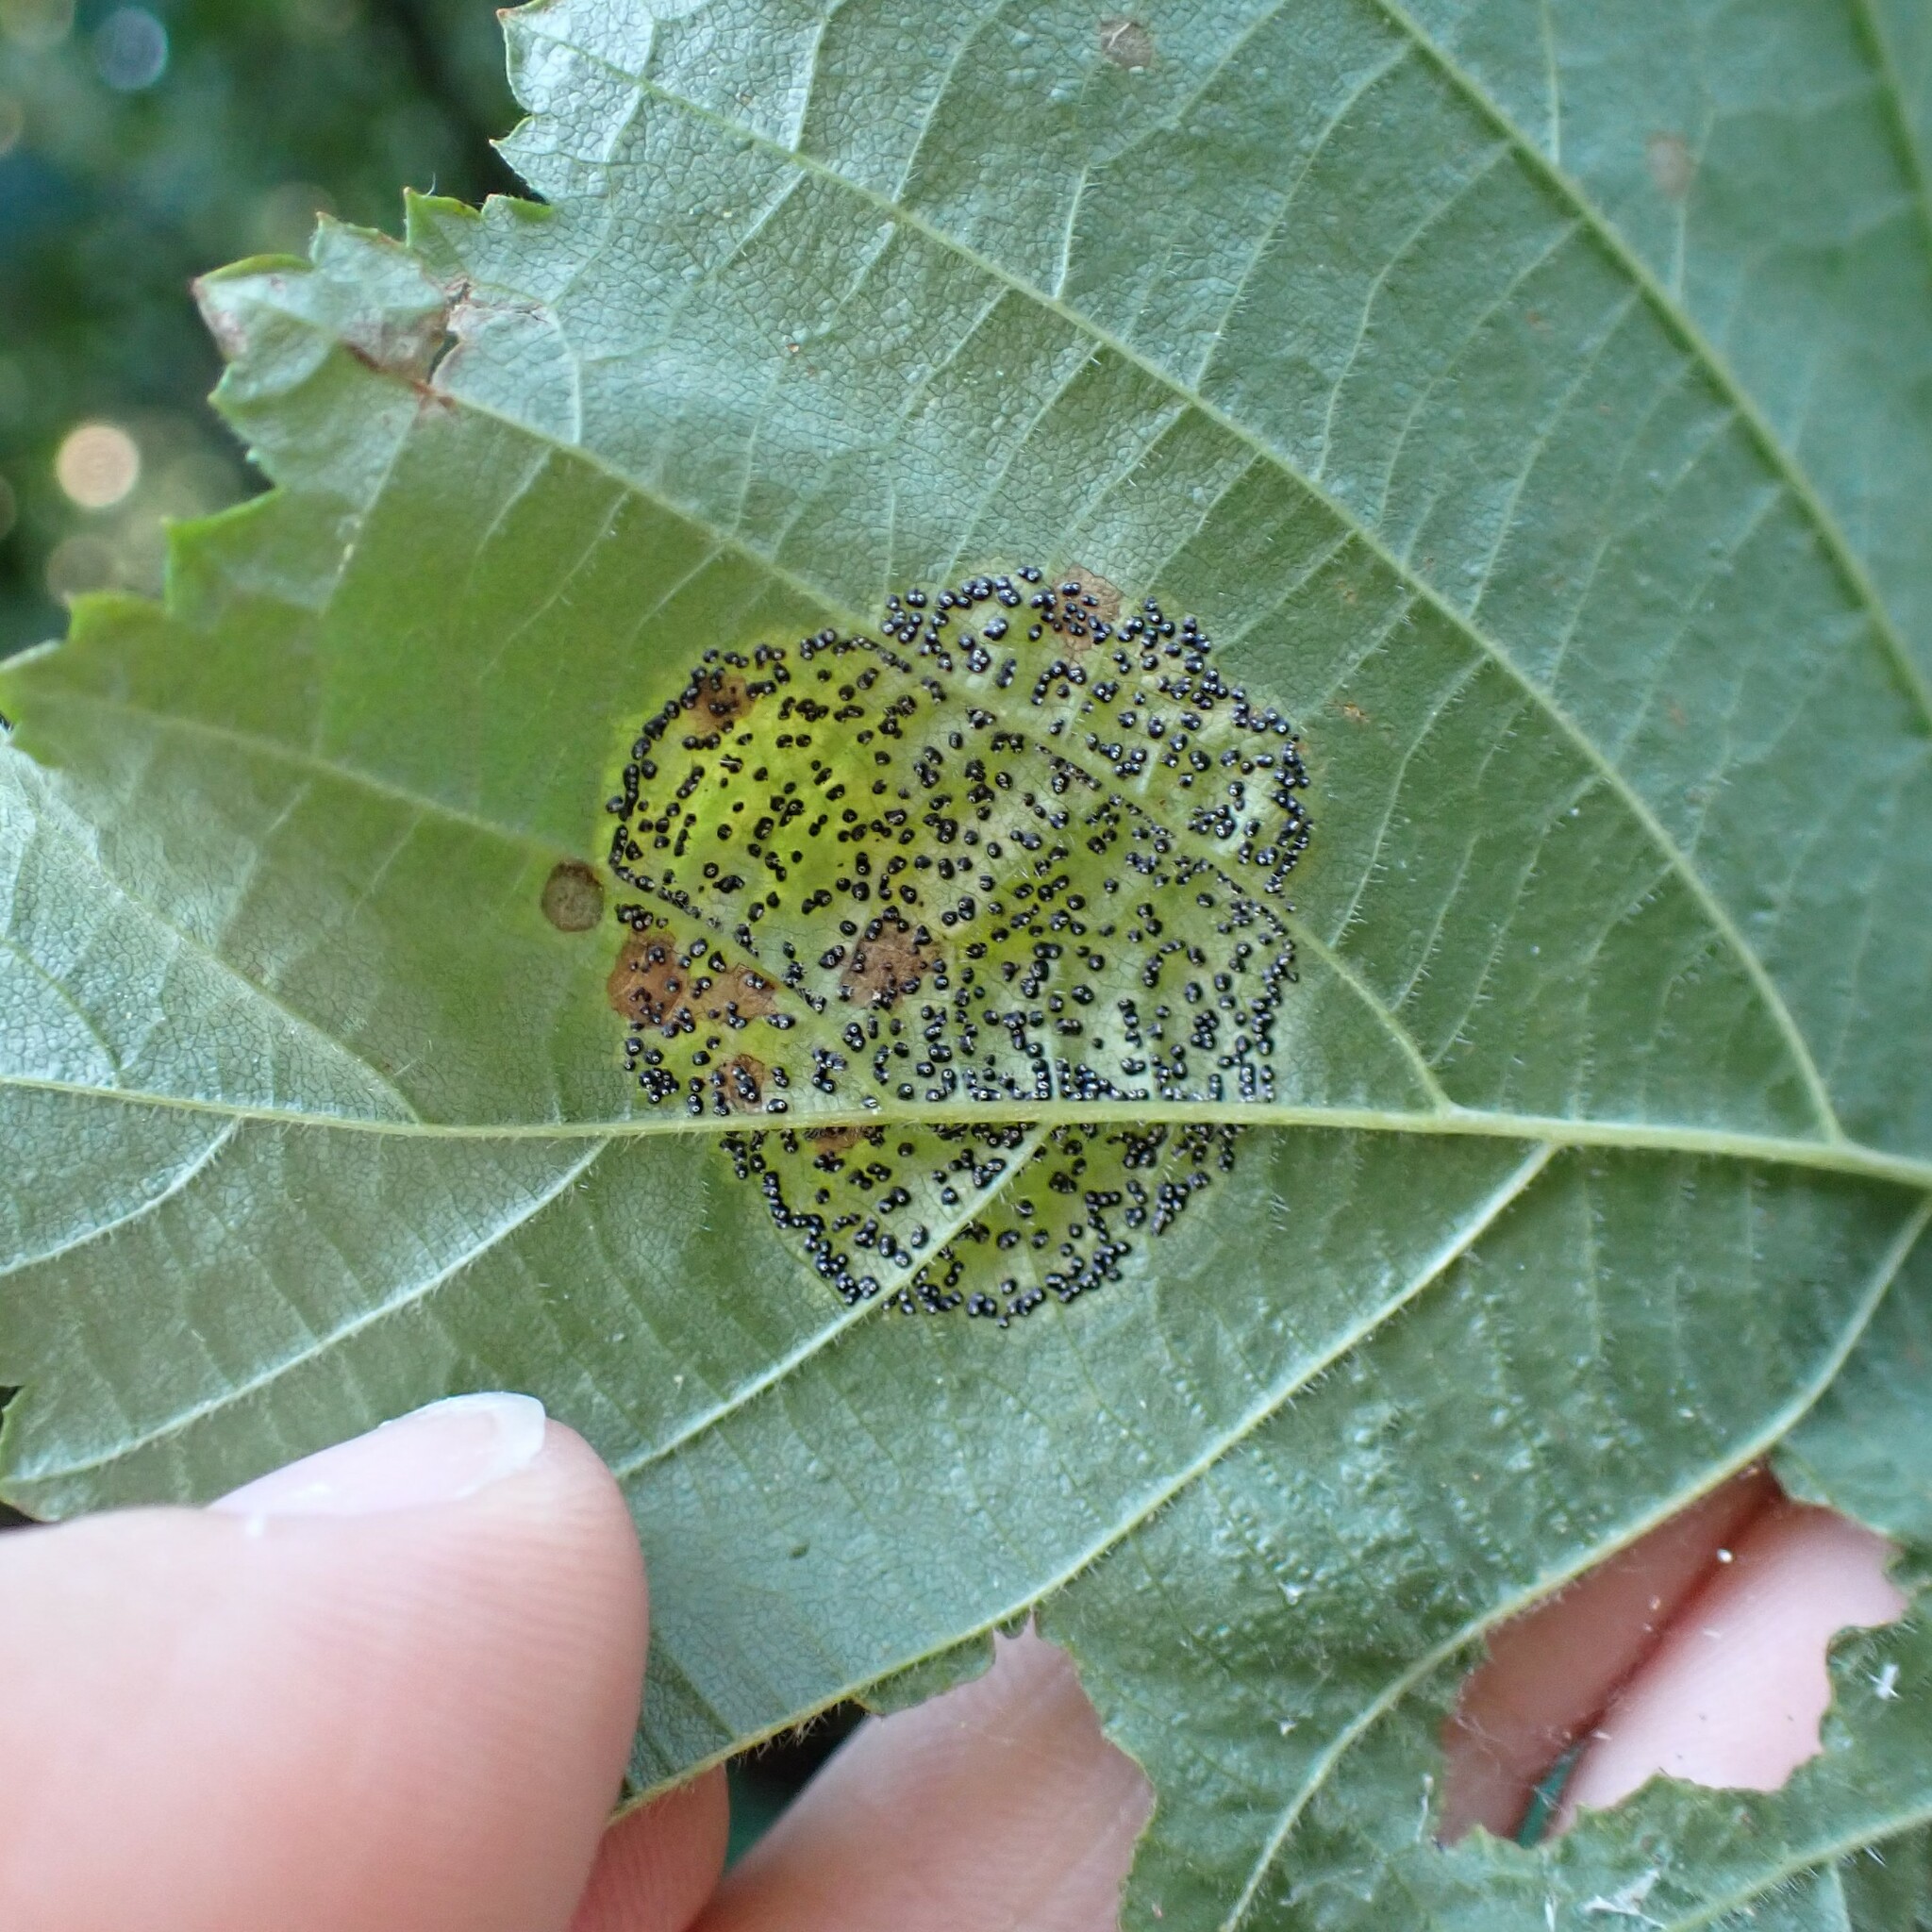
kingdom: Fungi
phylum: Ascomycota
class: Sordariomycetes
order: Diaporthales
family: Gnomoniaceae
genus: Mamianiella
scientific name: Mamianiella coryli
